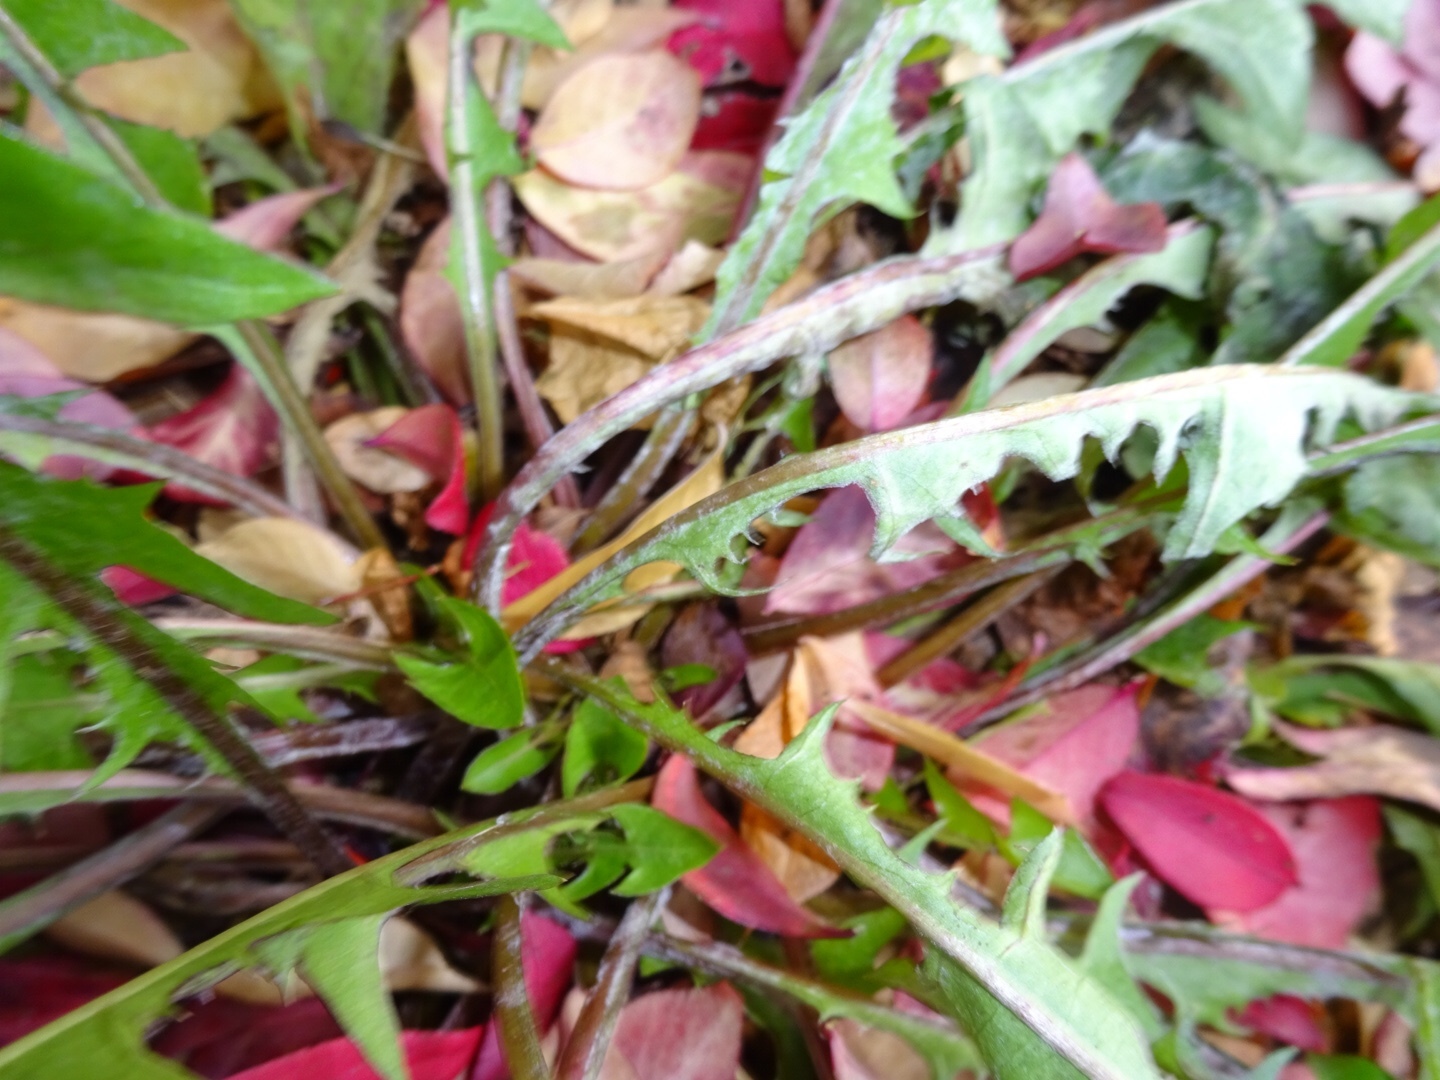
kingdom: Plantae
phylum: Tracheophyta
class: Magnoliopsida
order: Asterales
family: Asteraceae
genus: Taraxacum
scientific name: Taraxacum
